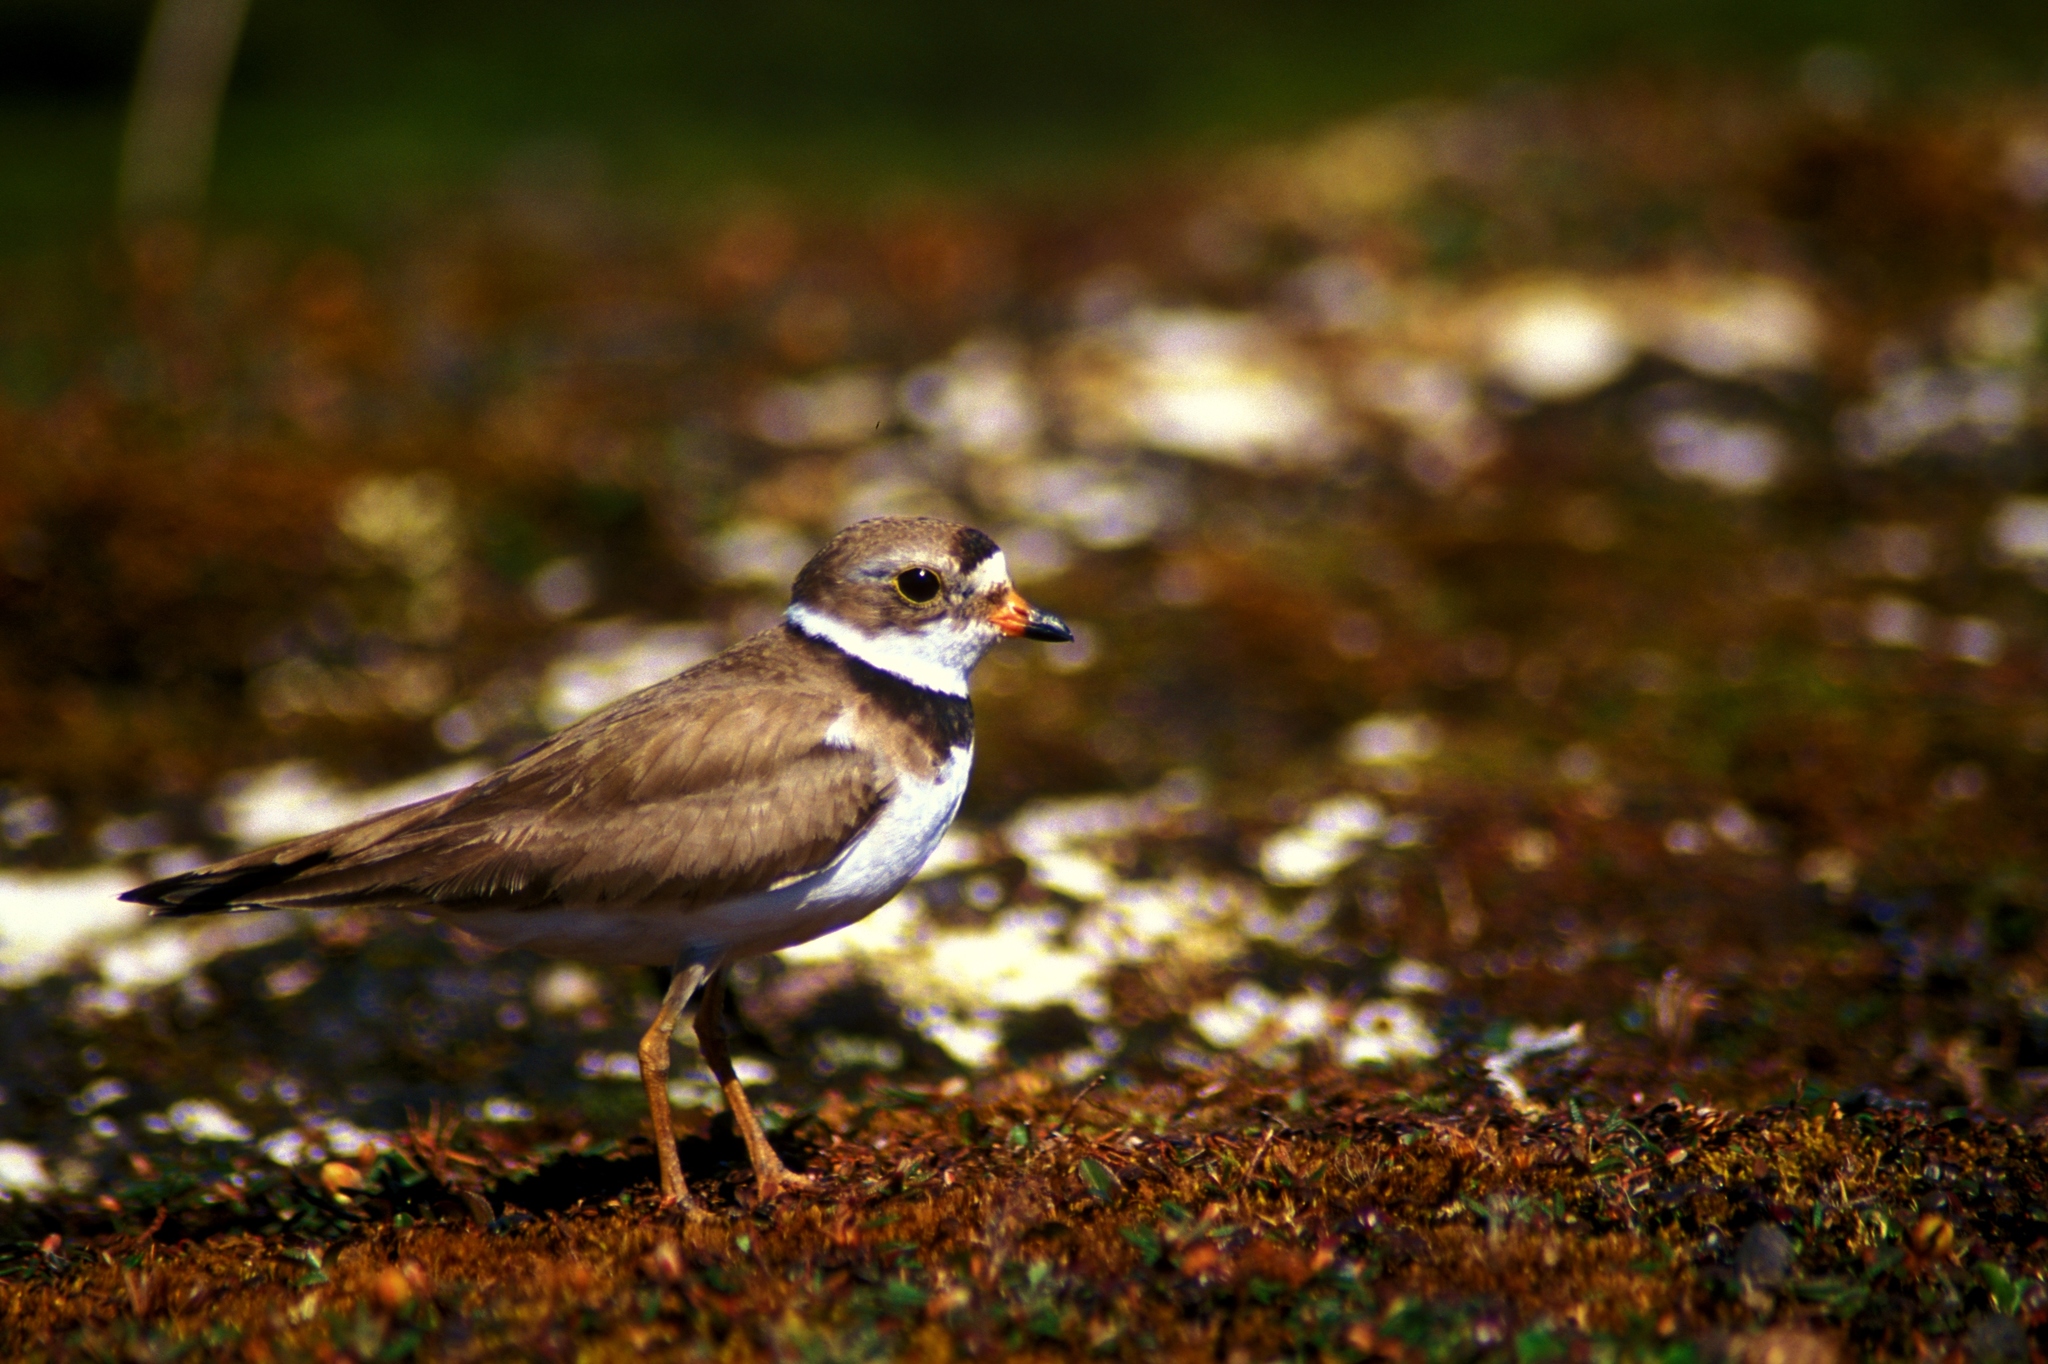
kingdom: Animalia
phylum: Chordata
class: Aves
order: Charadriiformes
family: Charadriidae
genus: Charadrius
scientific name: Charadrius semipalmatus
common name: Semipalmated plover
